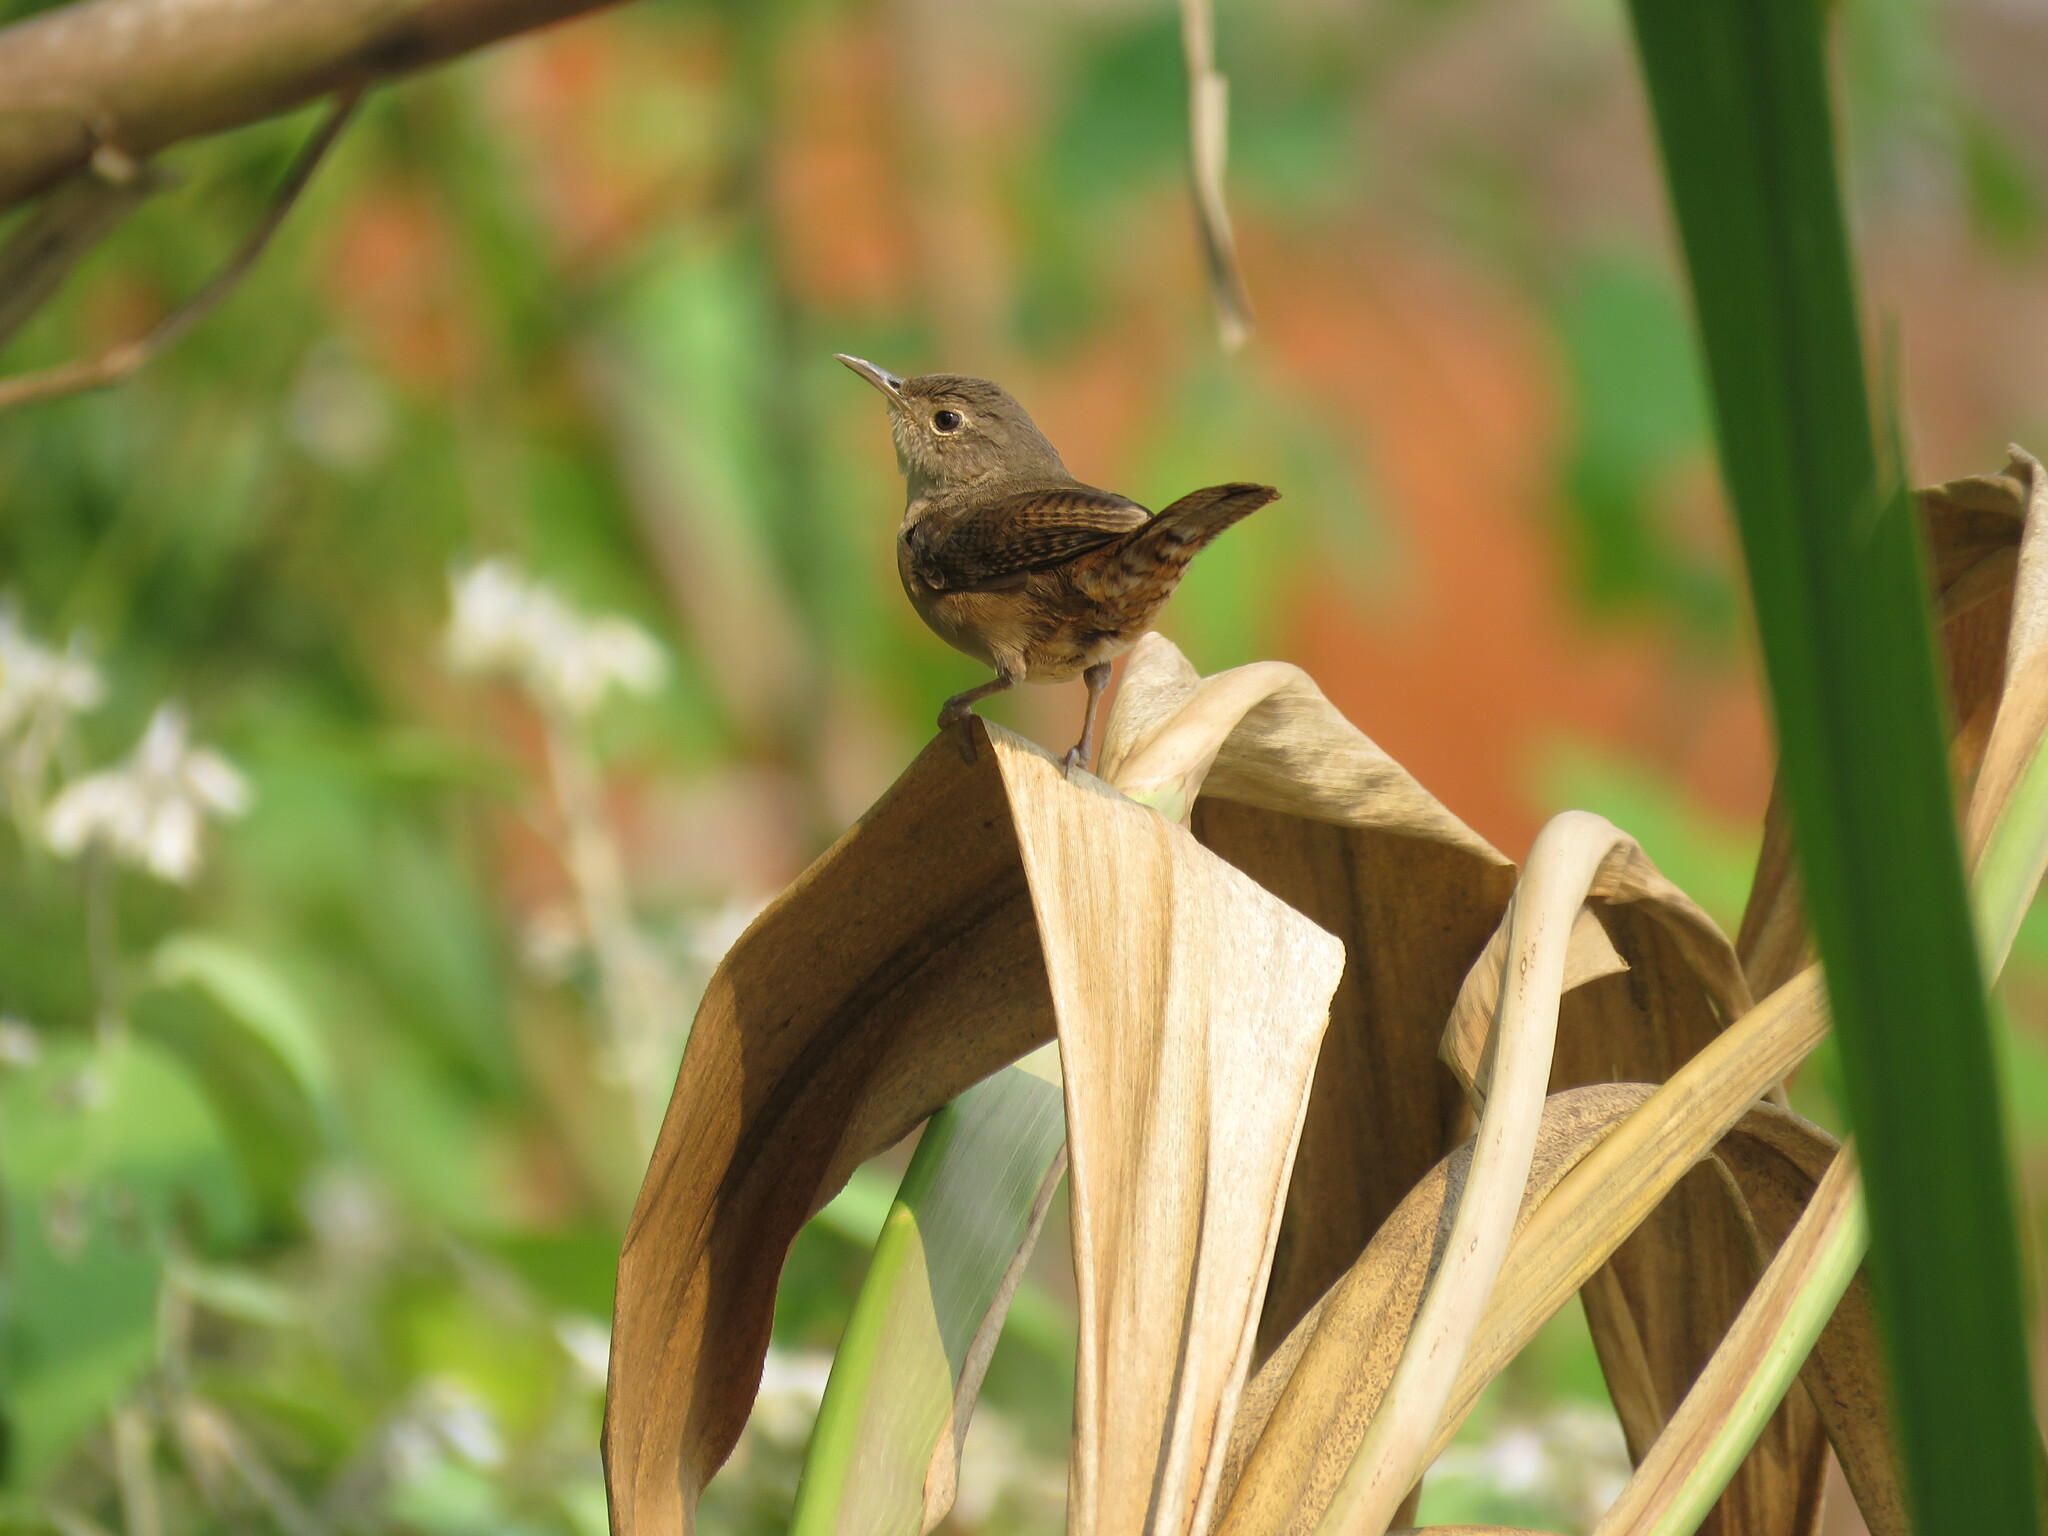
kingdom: Animalia
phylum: Chordata
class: Aves
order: Passeriformes
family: Troglodytidae
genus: Troglodytes
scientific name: Troglodytes aedon
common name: House wren
